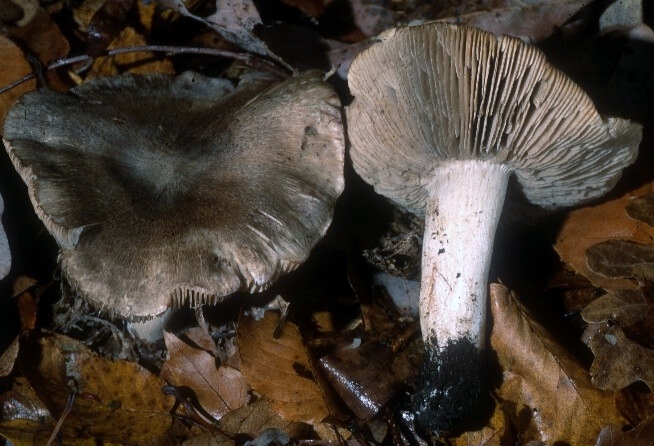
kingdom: Fungi
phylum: Basidiomycota
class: Agaricomycetes
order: Agaricales
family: Tricholomataceae
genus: Tricholoma
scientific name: Tricholoma pullum
